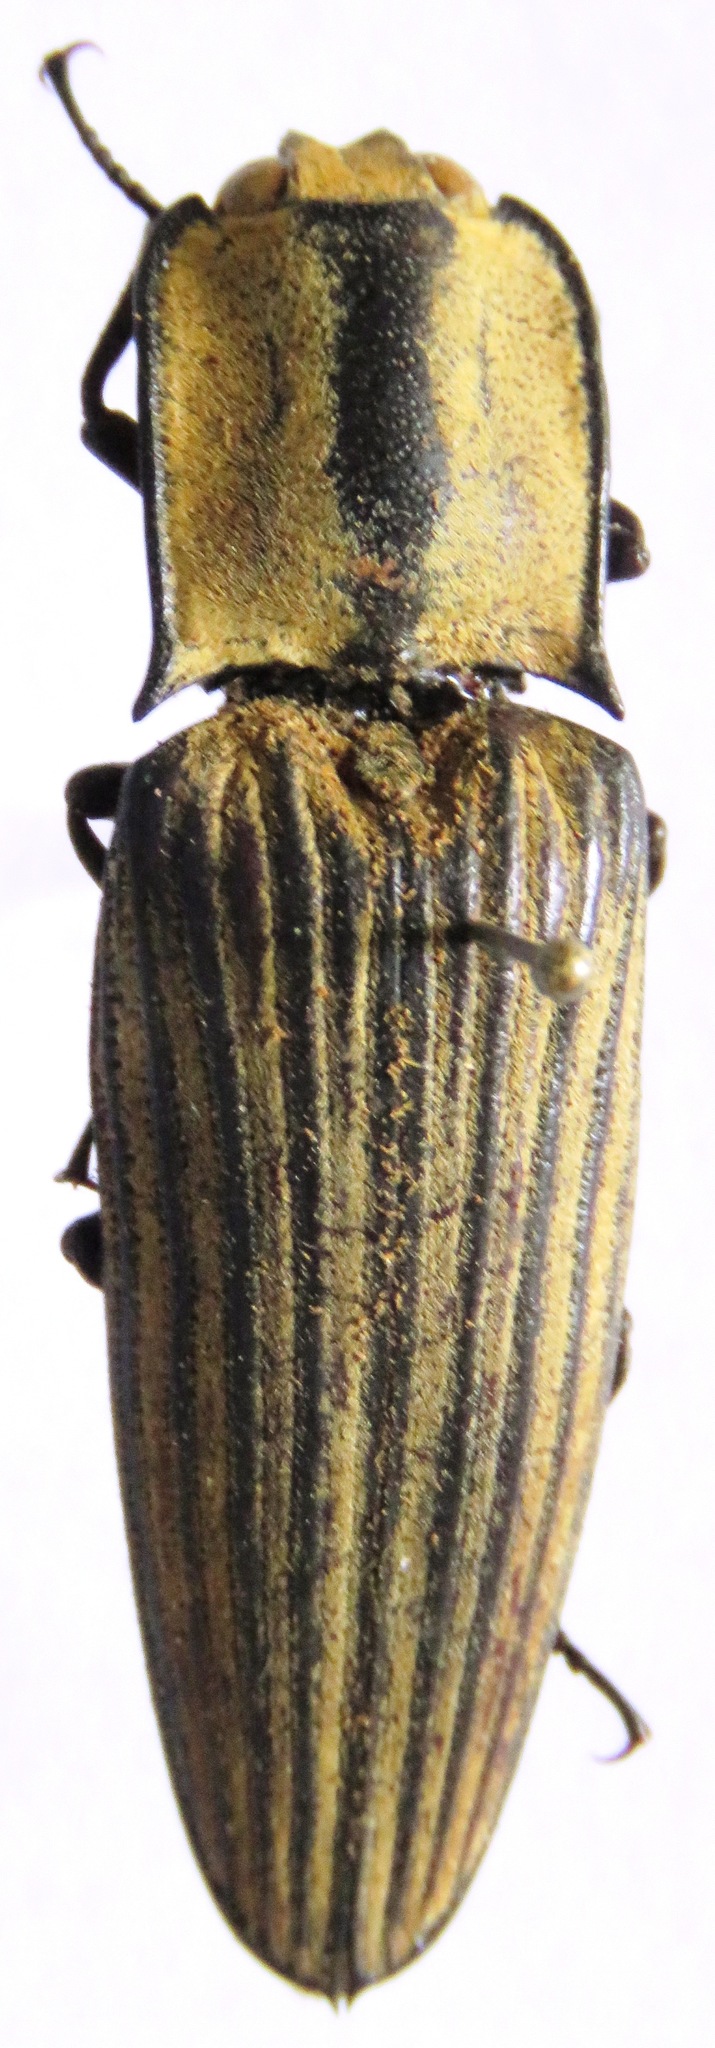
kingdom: Animalia
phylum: Arthropoda
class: Insecta
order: Coleoptera
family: Elateridae
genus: Alaus
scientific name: Alaus
